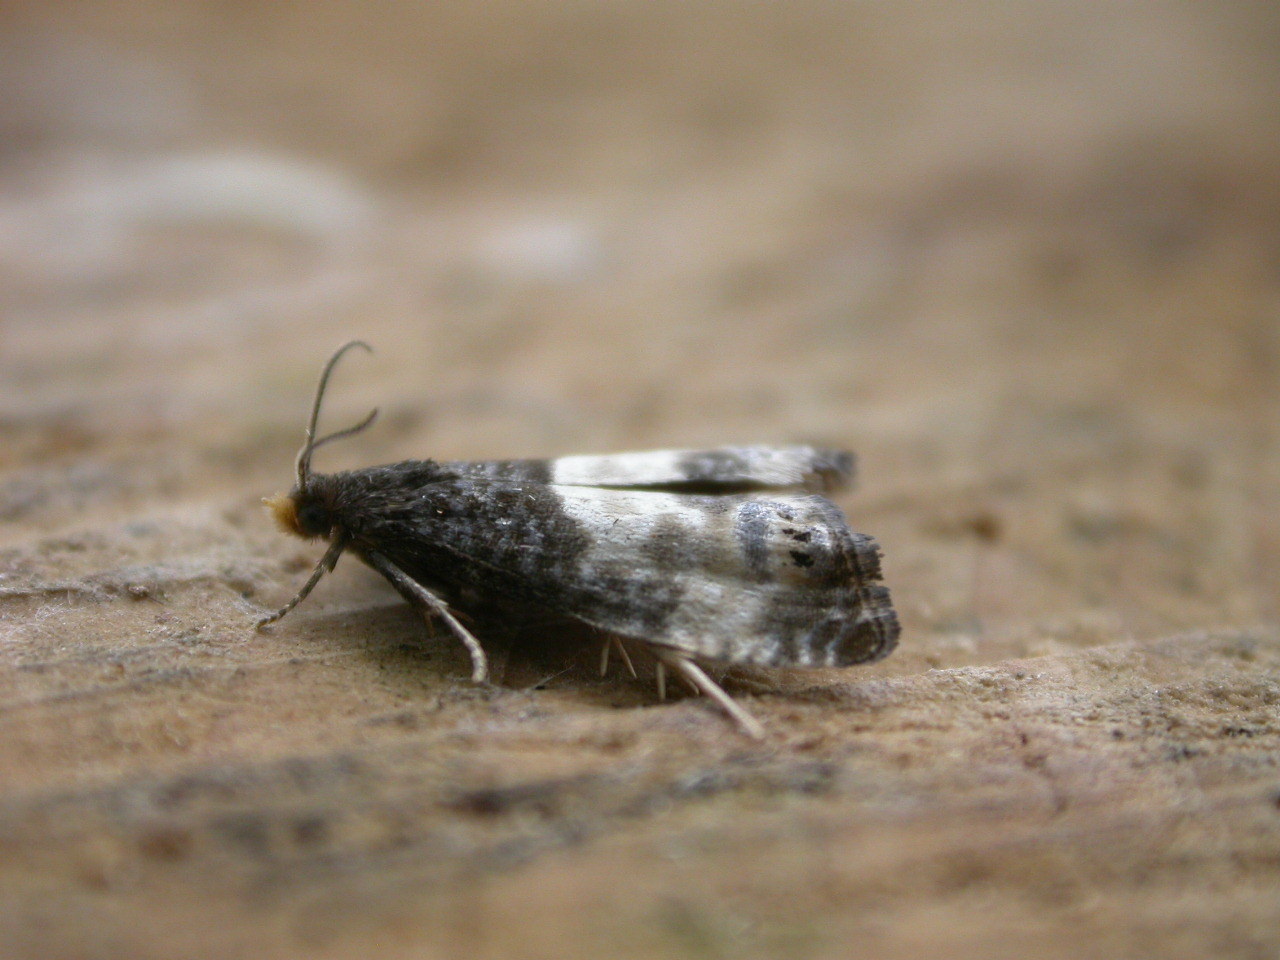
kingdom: Animalia
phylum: Arthropoda
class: Insecta
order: Lepidoptera
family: Tortricidae
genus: Notocelia
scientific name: Notocelia cynosbatella
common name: Yellow-faced bell moth
